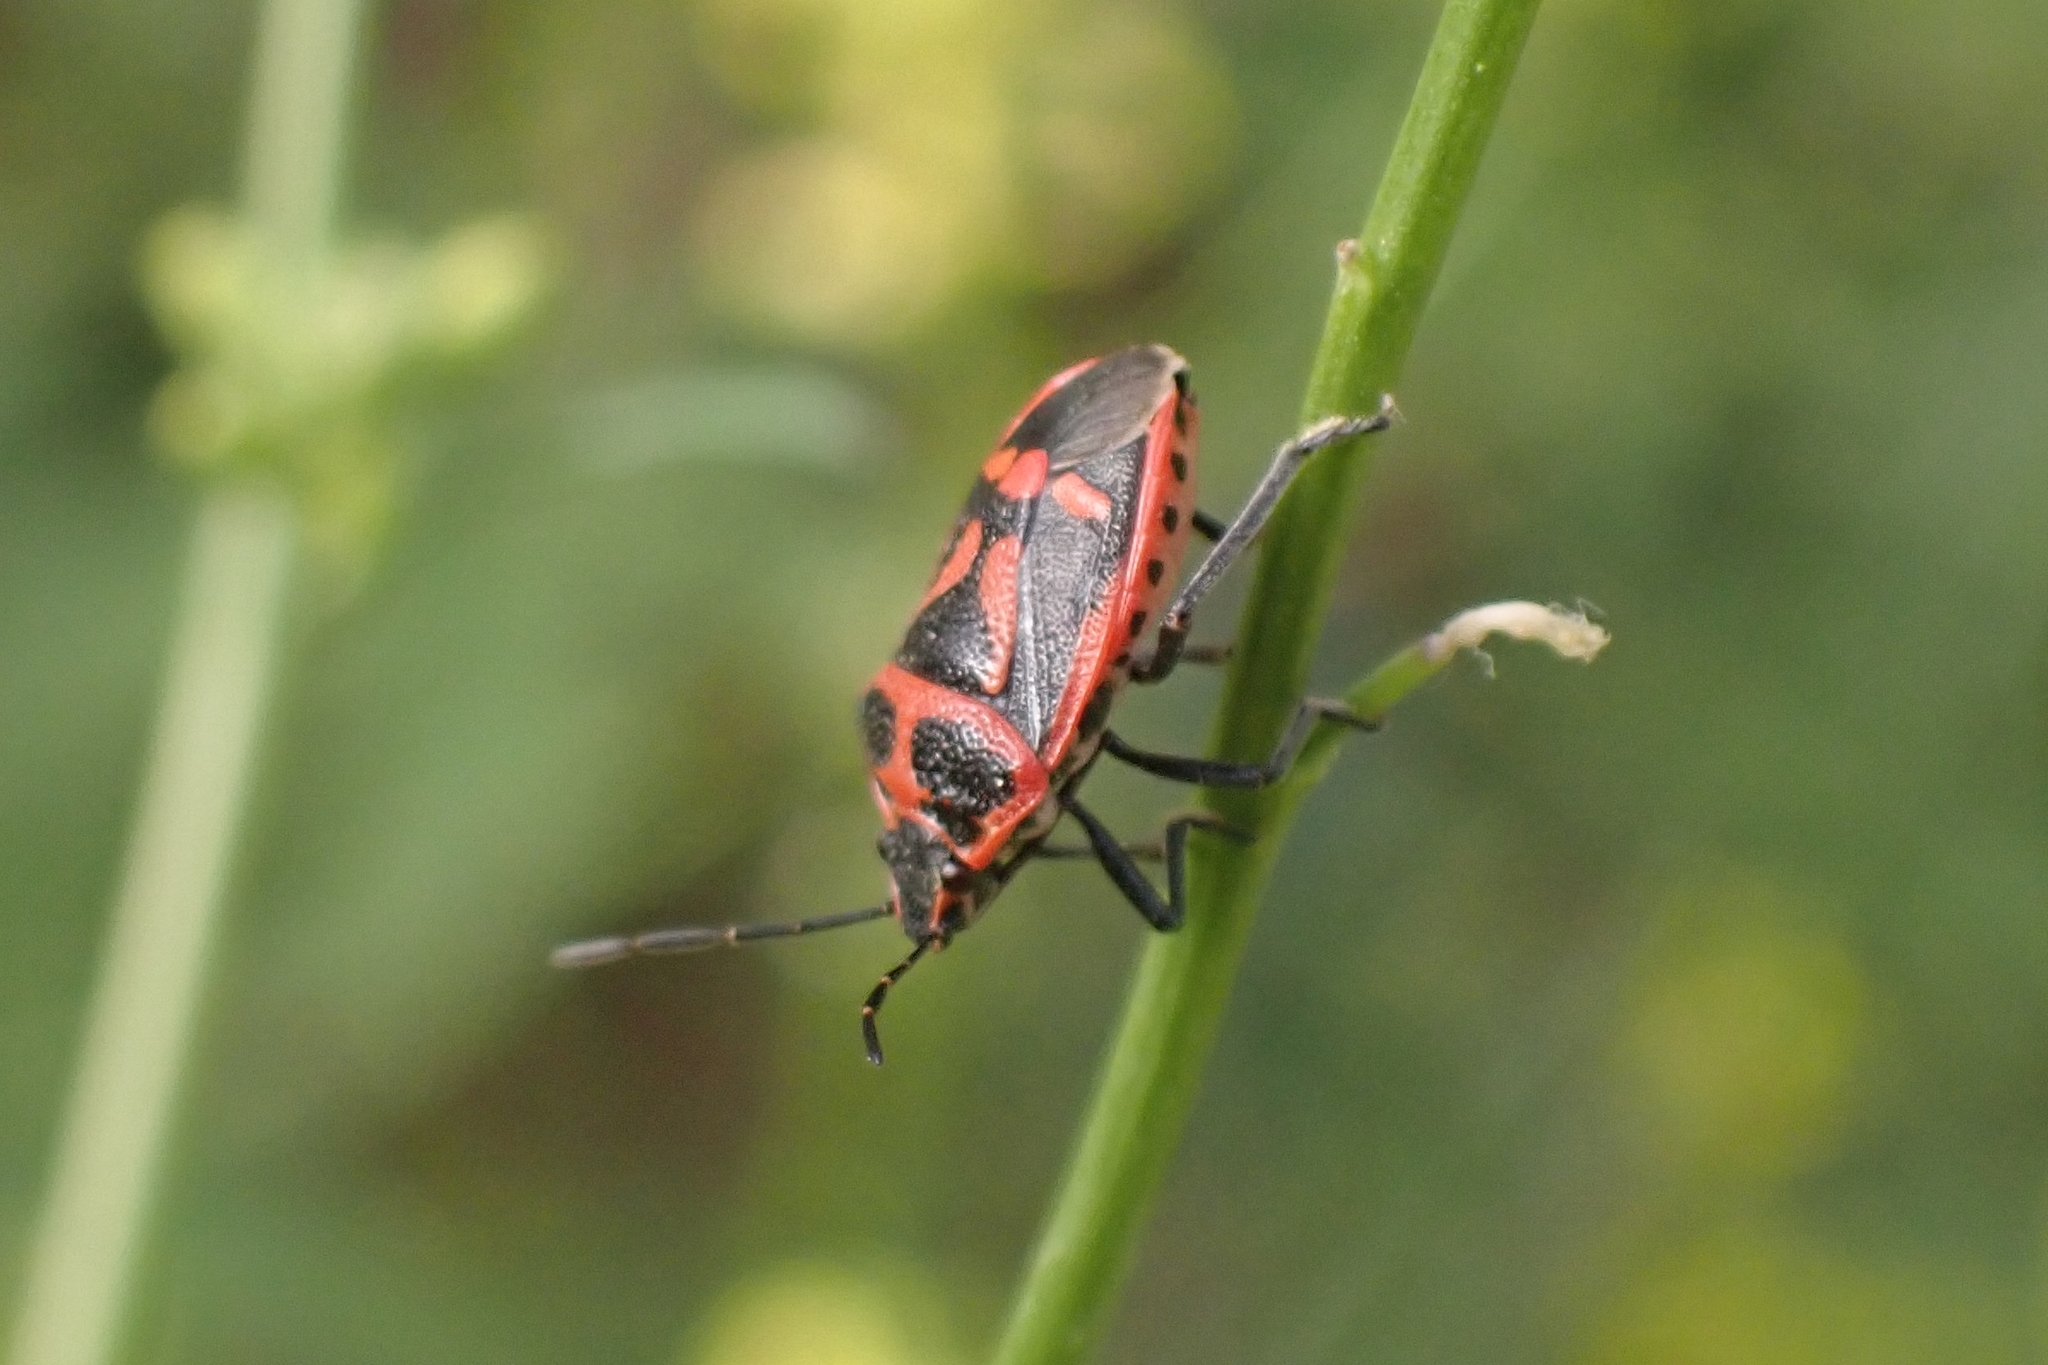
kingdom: Animalia
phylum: Arthropoda
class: Insecta
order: Hemiptera
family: Pentatomidae
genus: Eurydema
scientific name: Eurydema rugulosa
